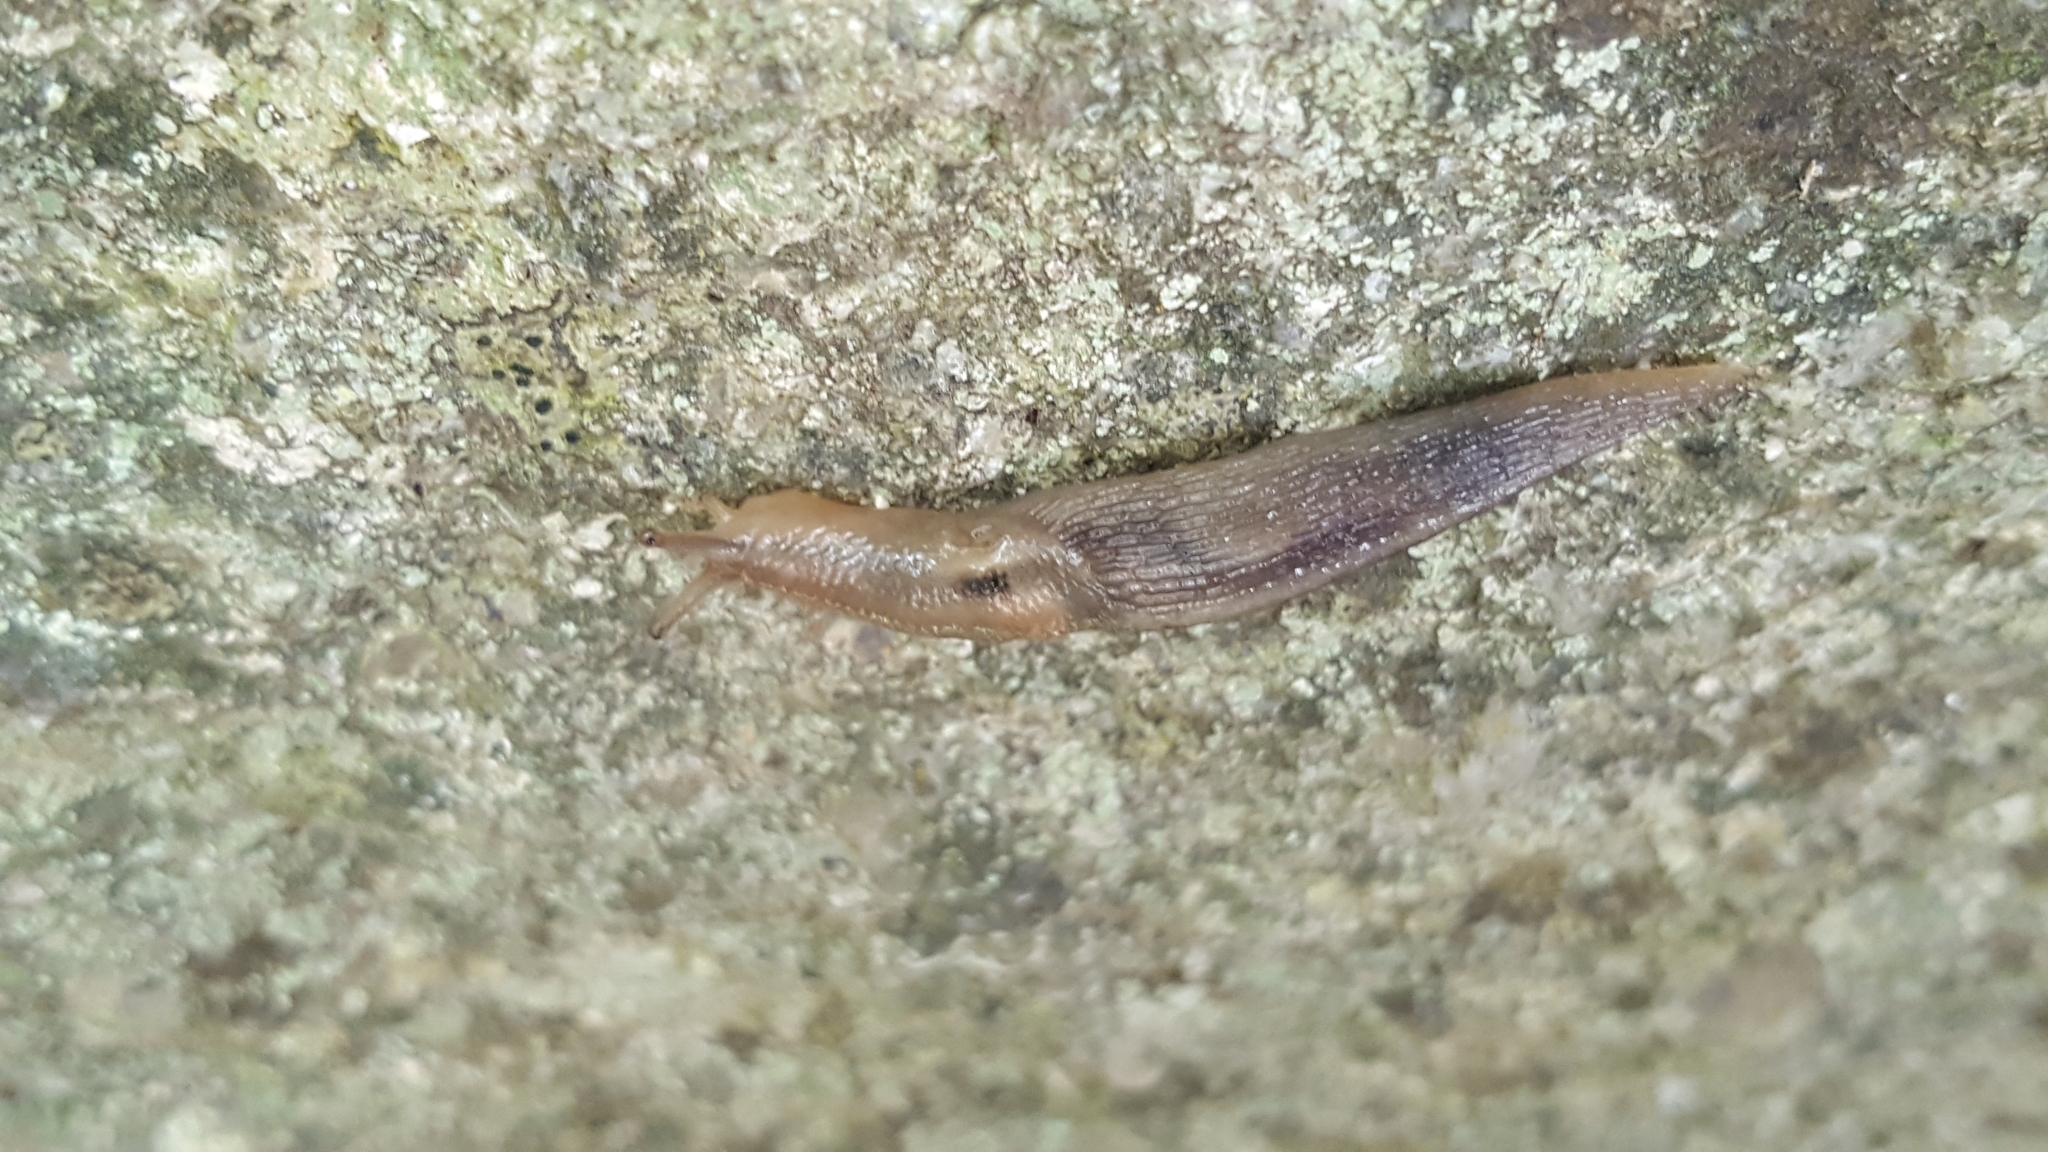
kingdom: Animalia
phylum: Mollusca
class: Gastropoda
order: Stylommatophora
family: Limacidae
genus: Lehmannia
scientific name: Lehmannia marginata
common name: Tree slug
